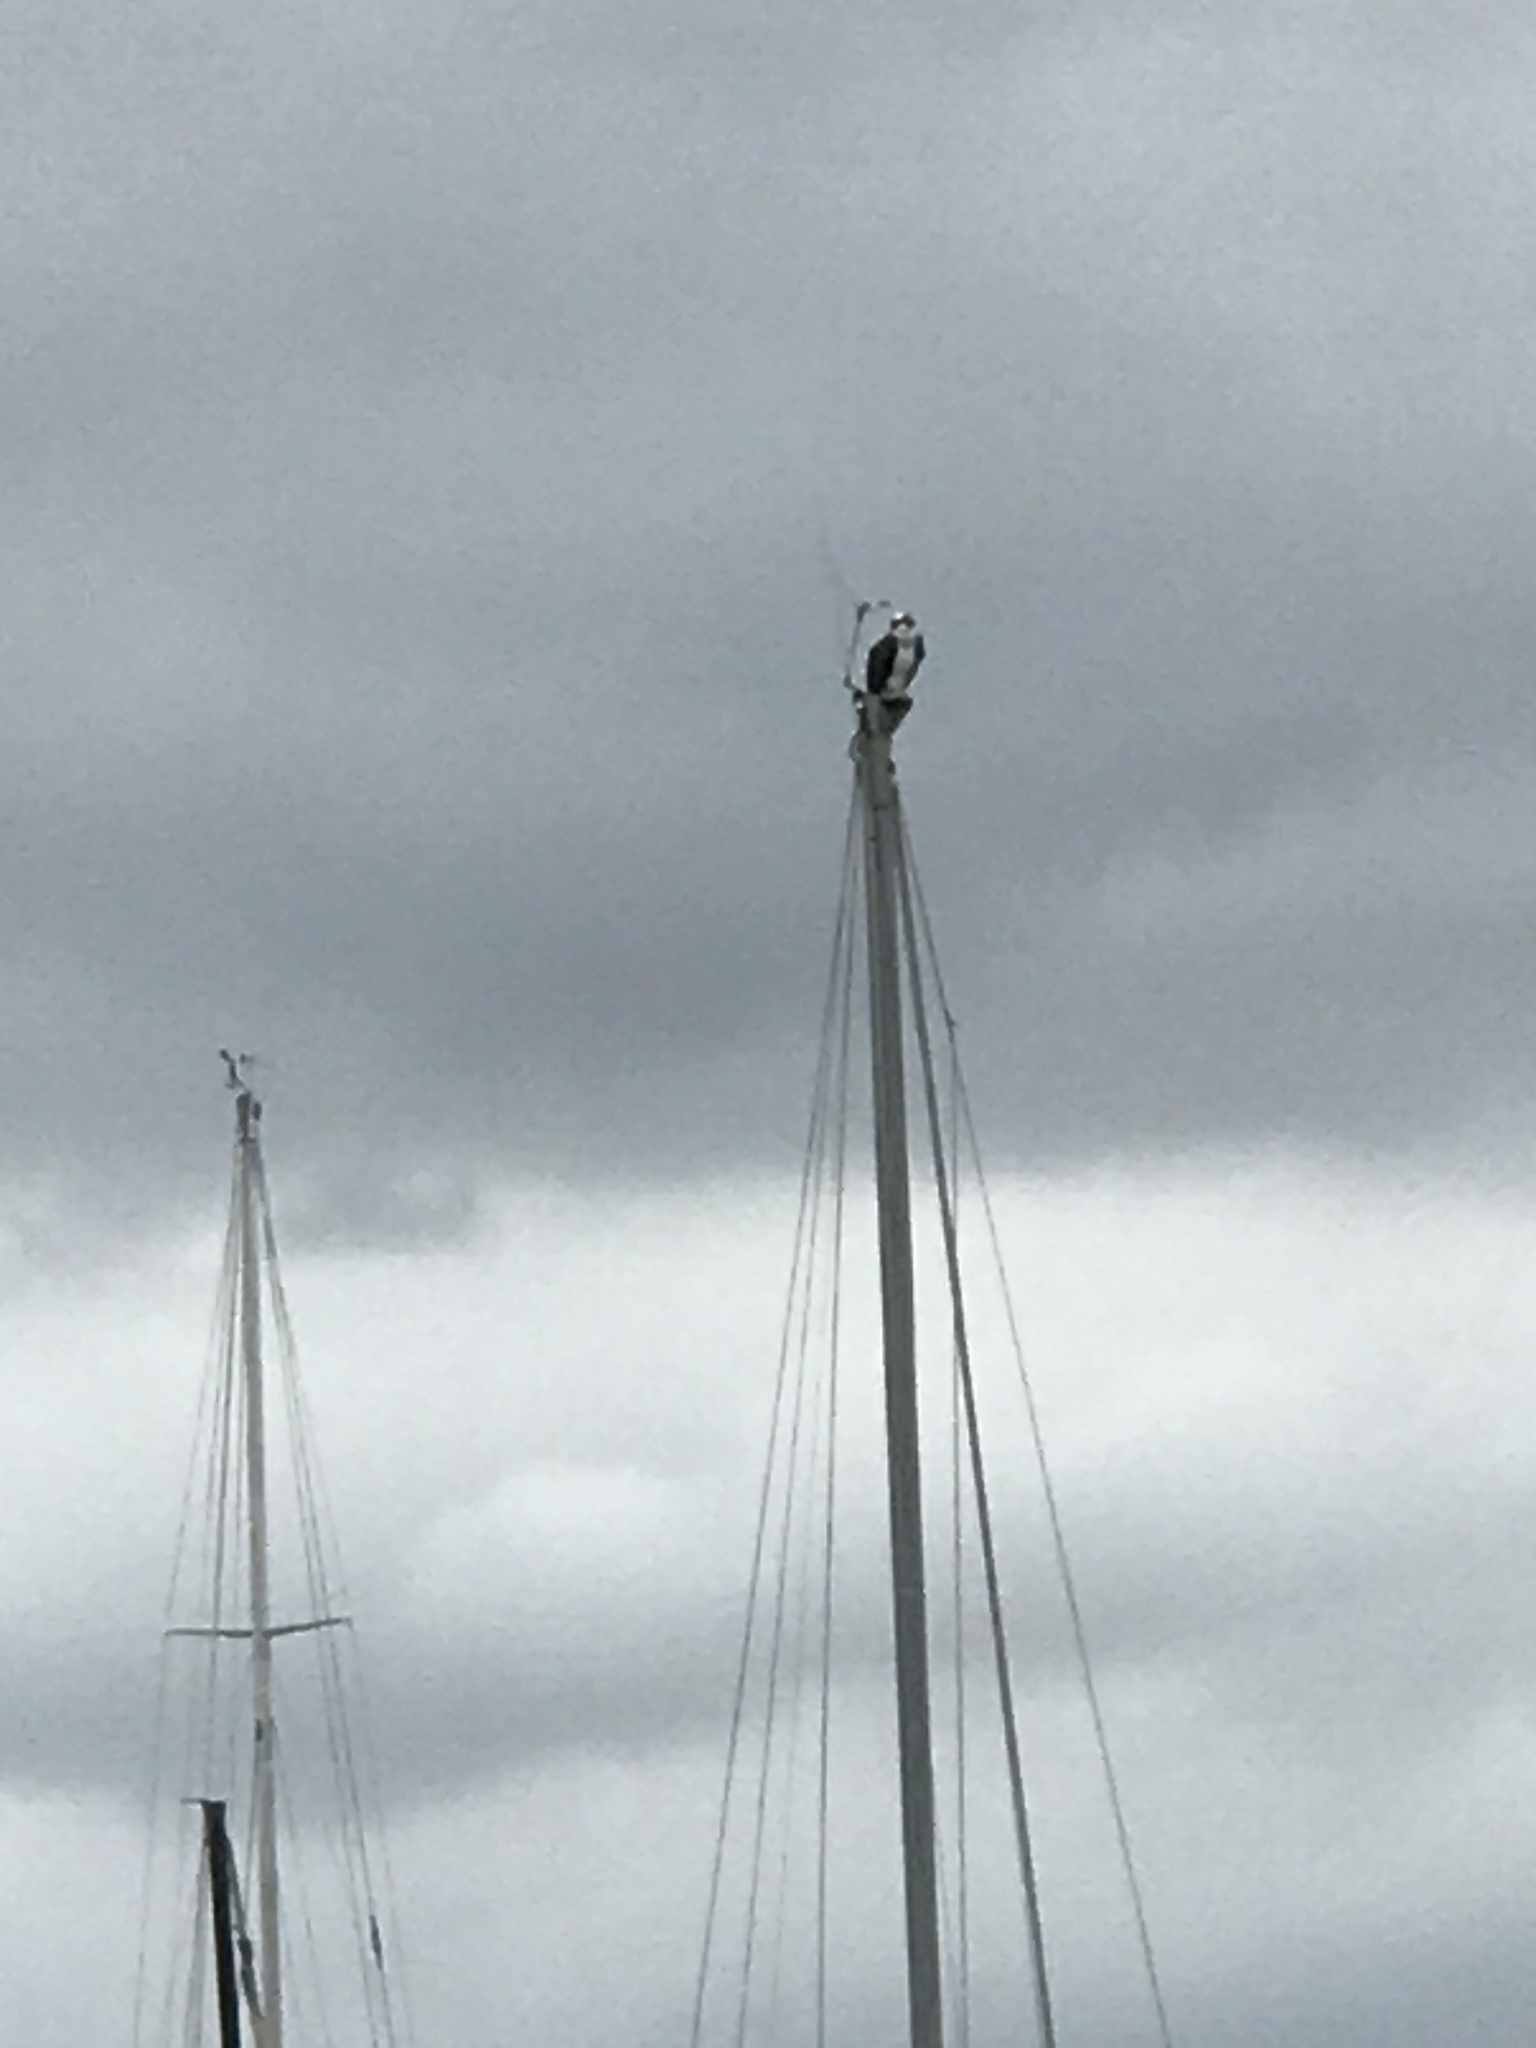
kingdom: Animalia
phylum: Chordata
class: Aves
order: Accipitriformes
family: Pandionidae
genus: Pandion
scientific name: Pandion haliaetus
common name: Osprey
